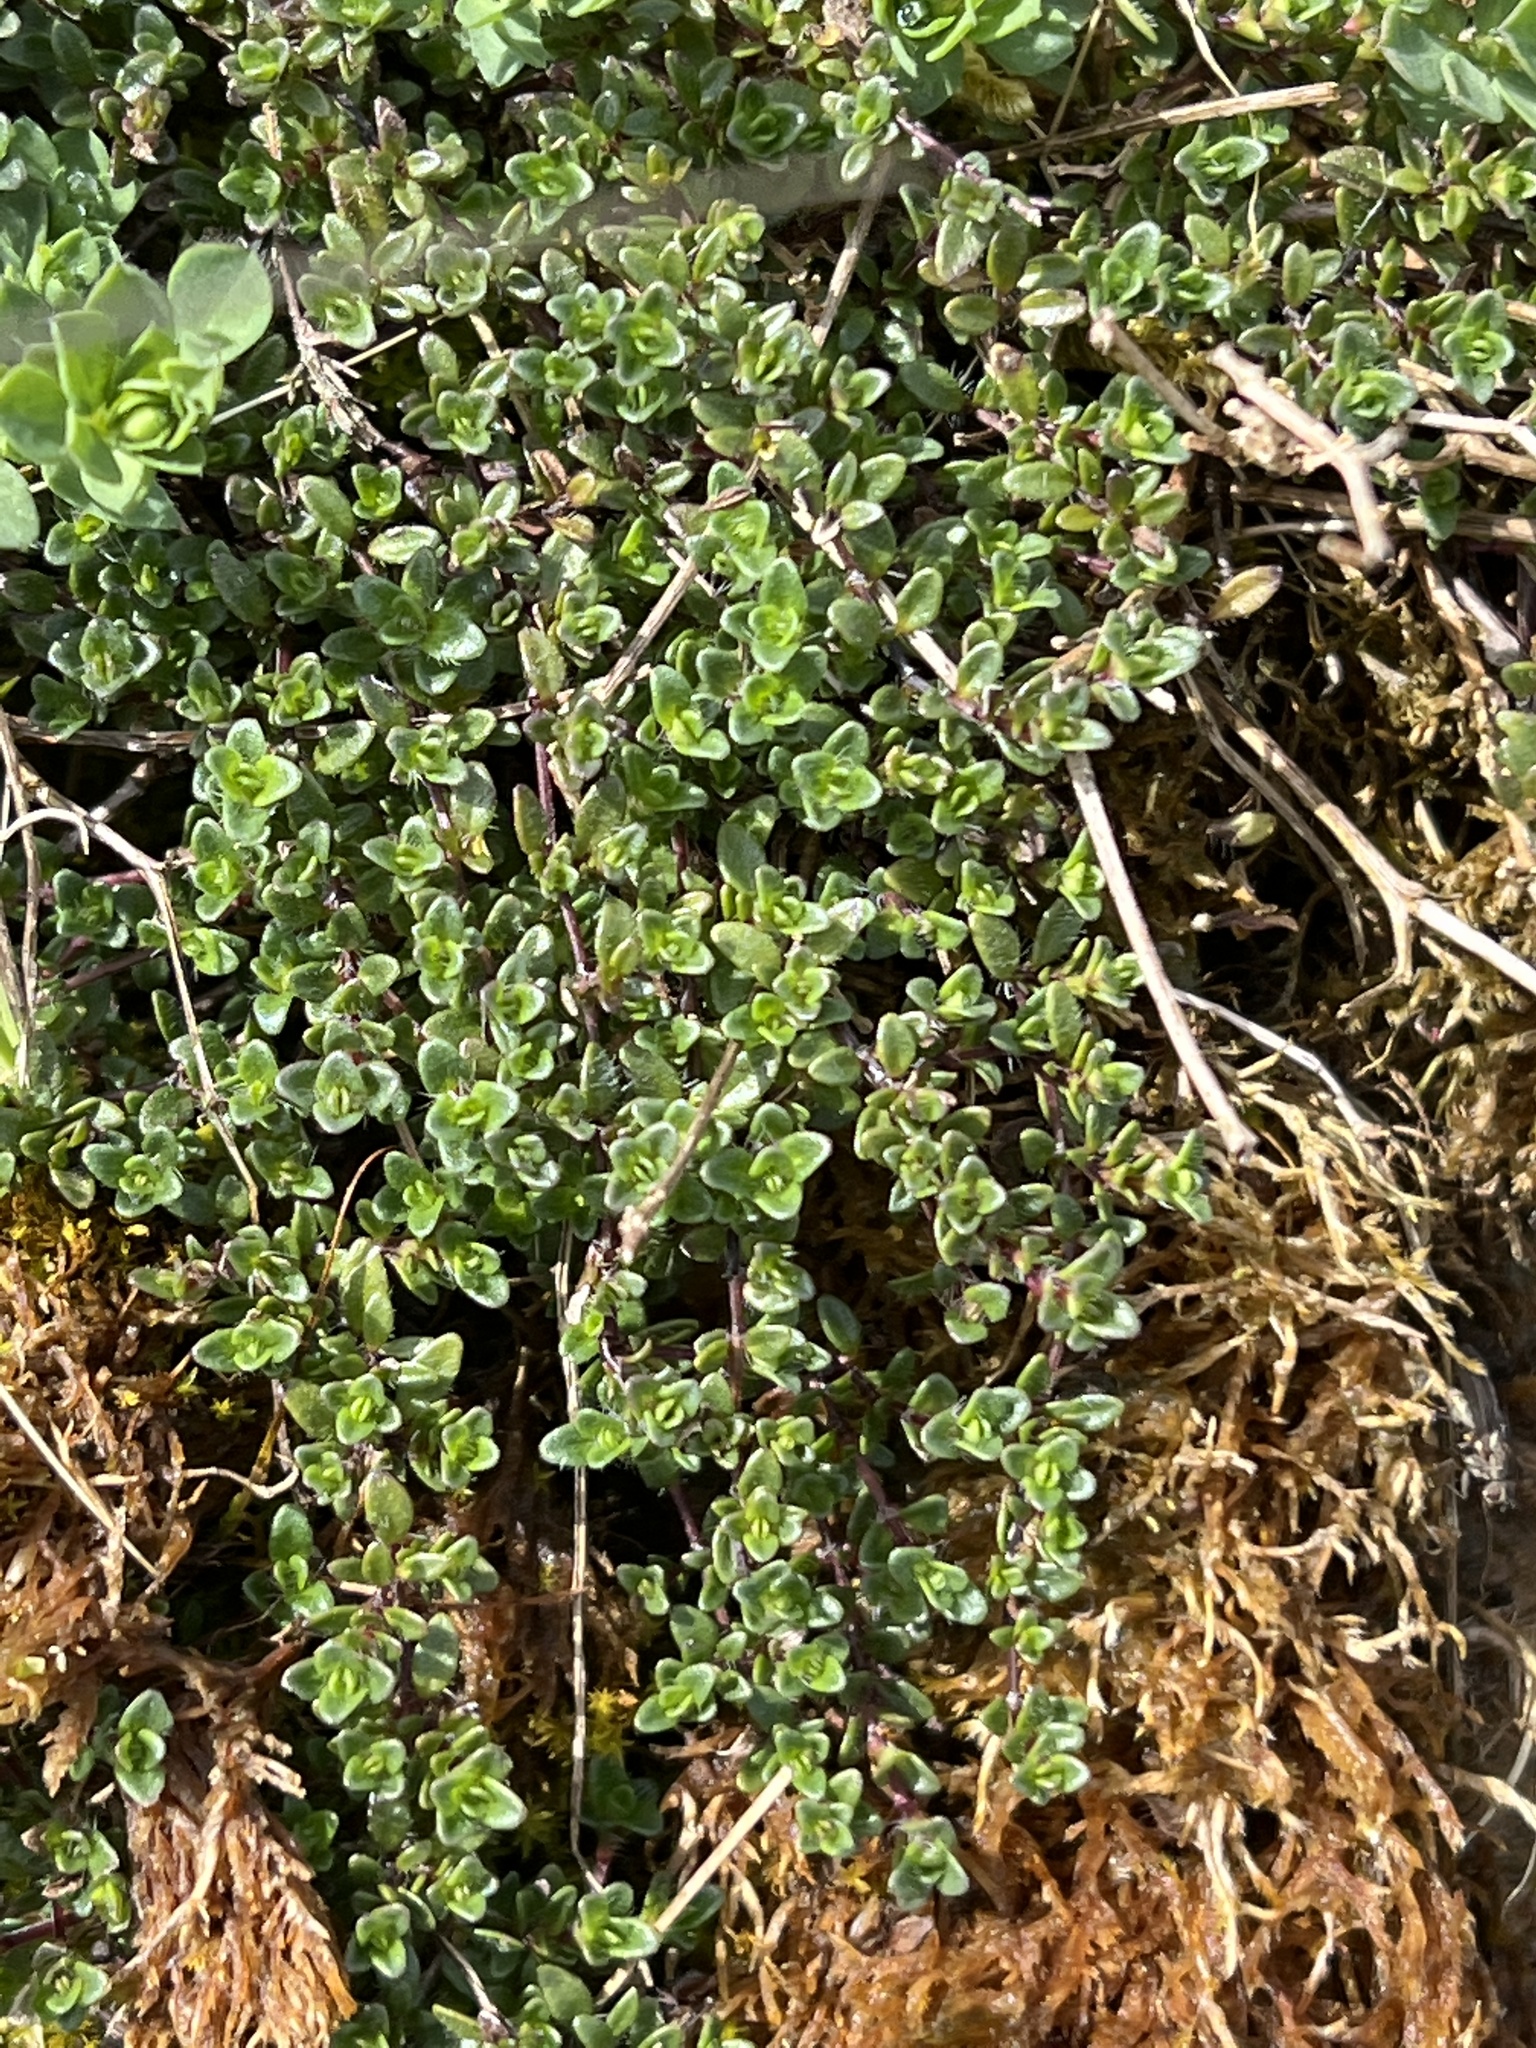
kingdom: Plantae
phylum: Tracheophyta
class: Magnoliopsida
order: Lamiales
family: Lamiaceae
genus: Thymus
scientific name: Thymus praecox
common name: Wild thyme
